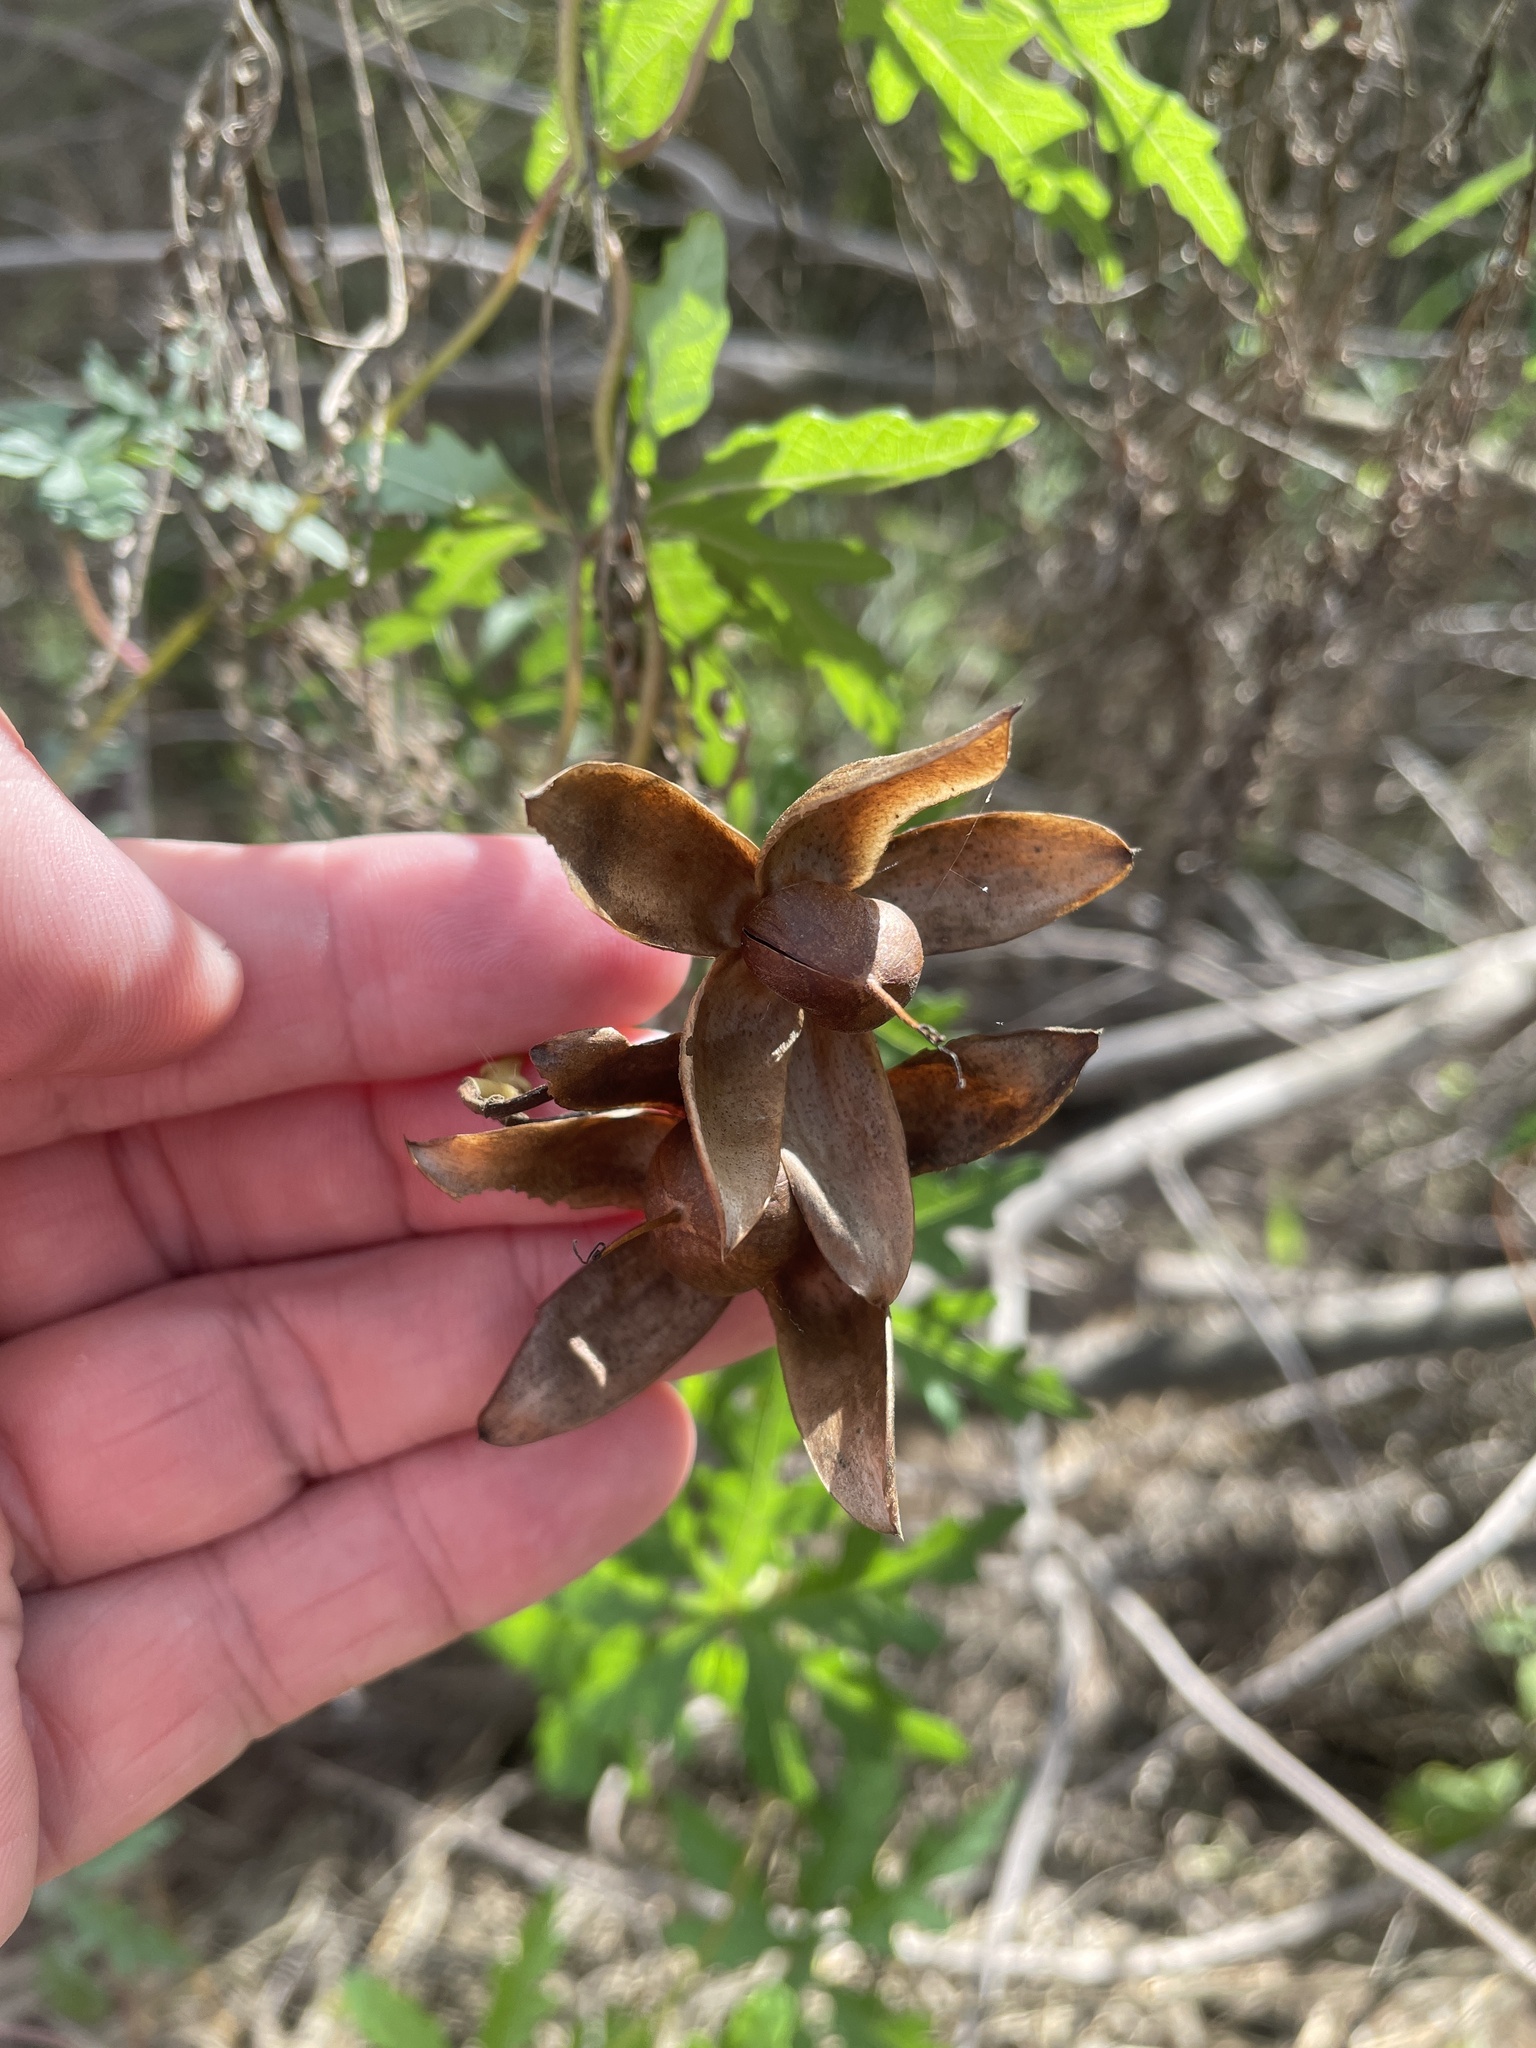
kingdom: Plantae
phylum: Tracheophyta
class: Magnoliopsida
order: Solanales
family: Convolvulaceae
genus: Distimake
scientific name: Distimake dissectus
